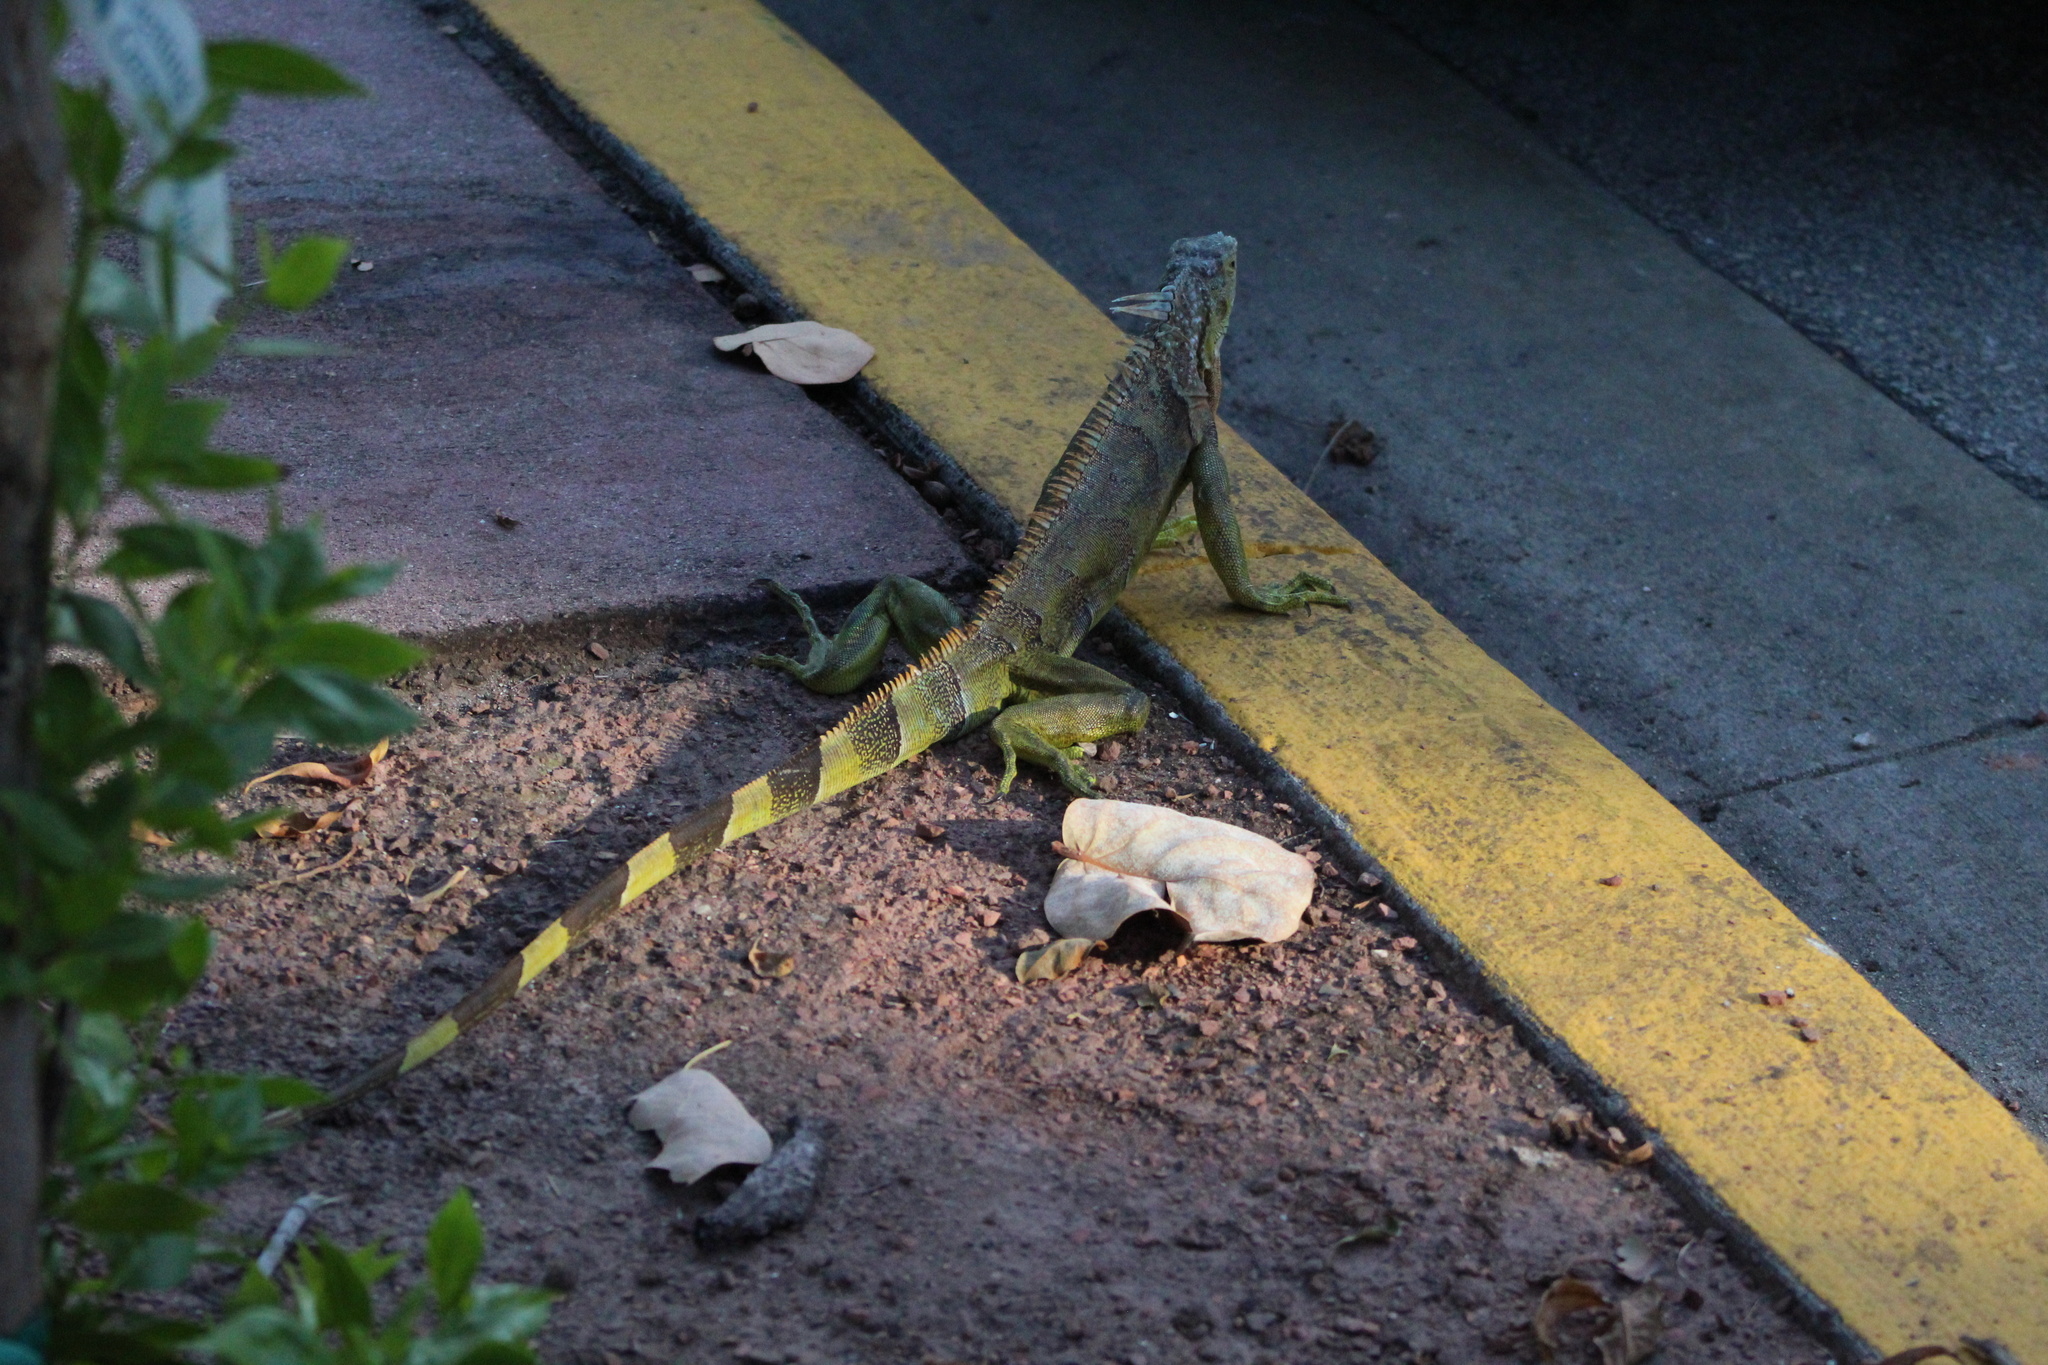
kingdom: Animalia
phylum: Chordata
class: Squamata
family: Iguanidae
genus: Iguana
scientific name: Iguana iguana
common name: Green iguana
